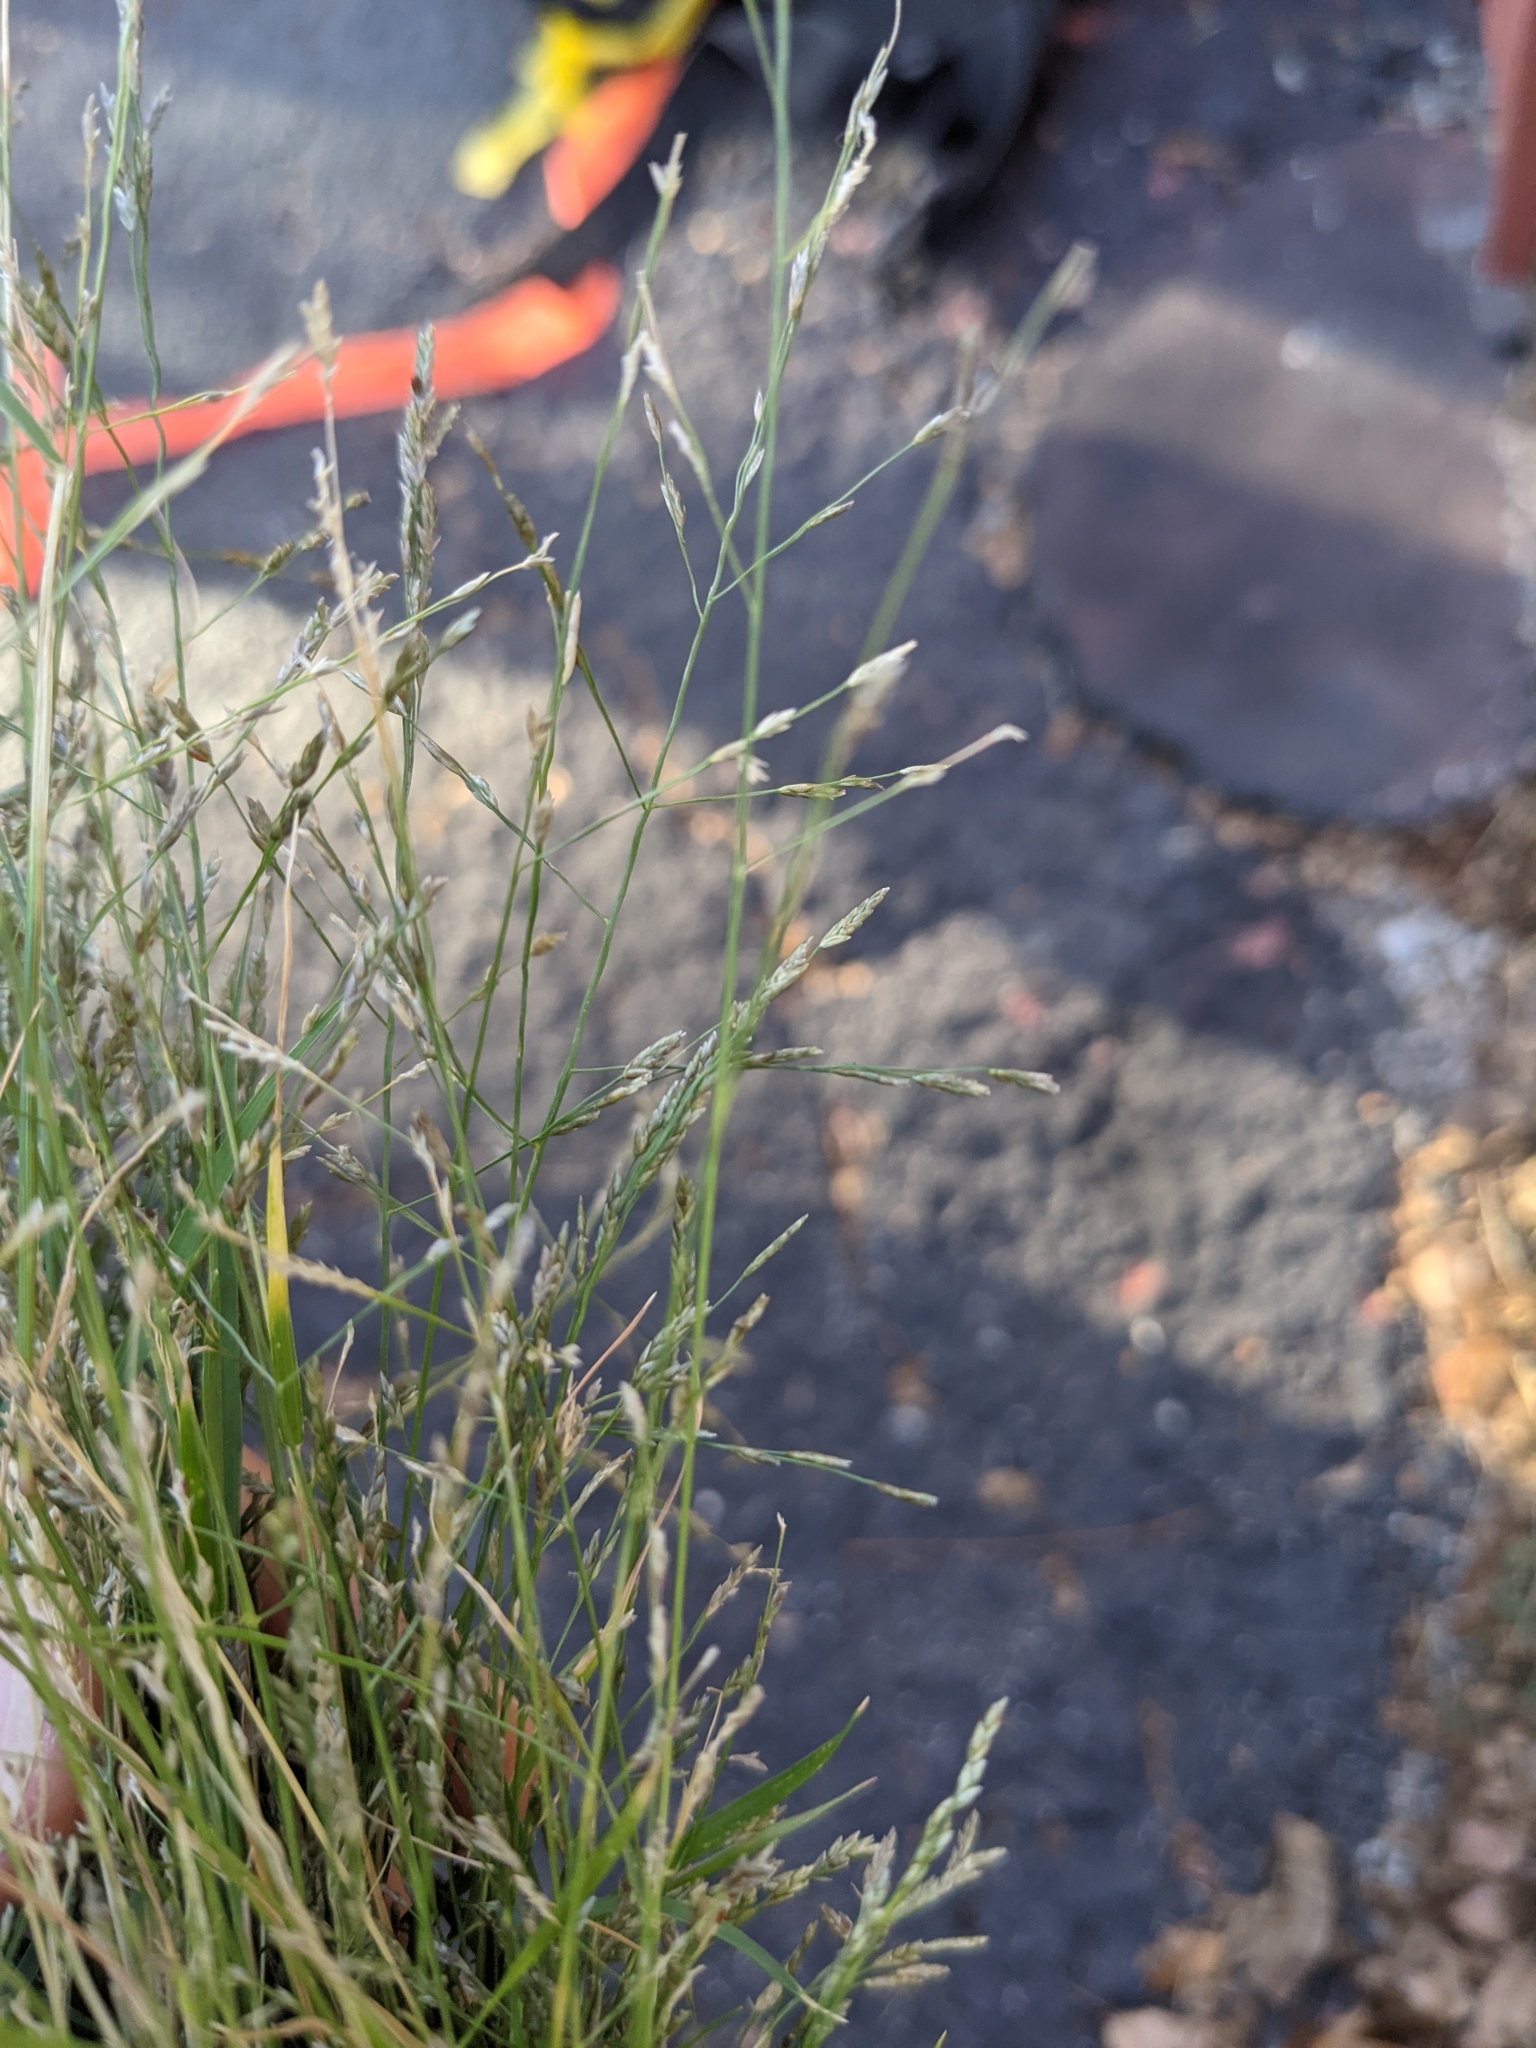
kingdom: Plantae
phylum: Tracheophyta
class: Liliopsida
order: Poales
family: Poaceae
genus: Eragrostis
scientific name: Eragrostis pectinacea
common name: Tufted lovegrass
